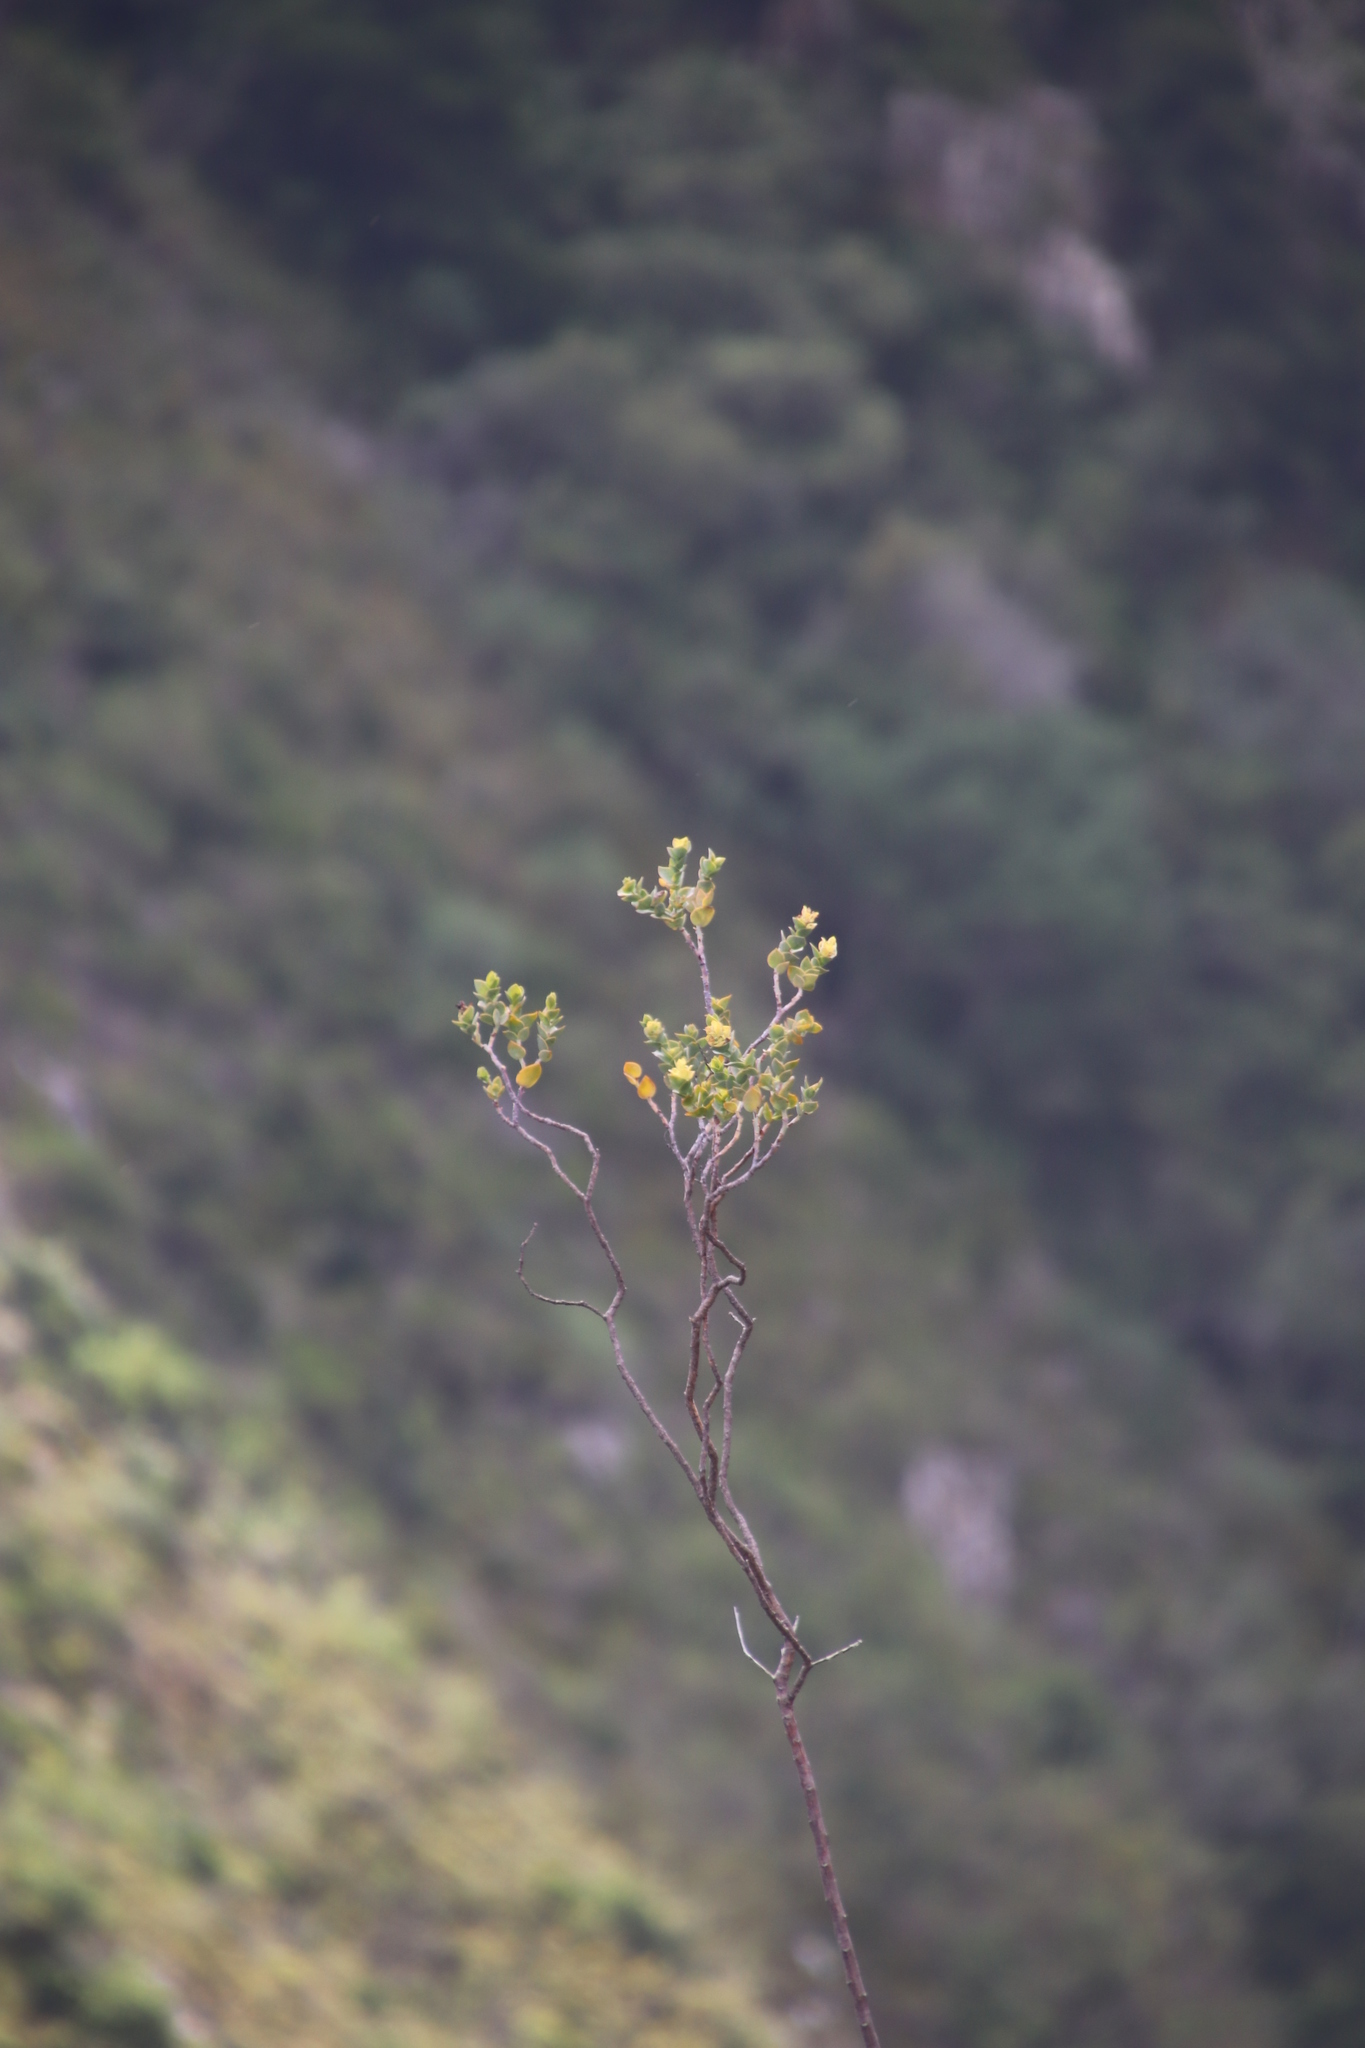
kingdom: Plantae
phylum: Tracheophyta
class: Magnoliopsida
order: Santalales
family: Thesiaceae
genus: Thesium
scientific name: Thesium euphorbioides
